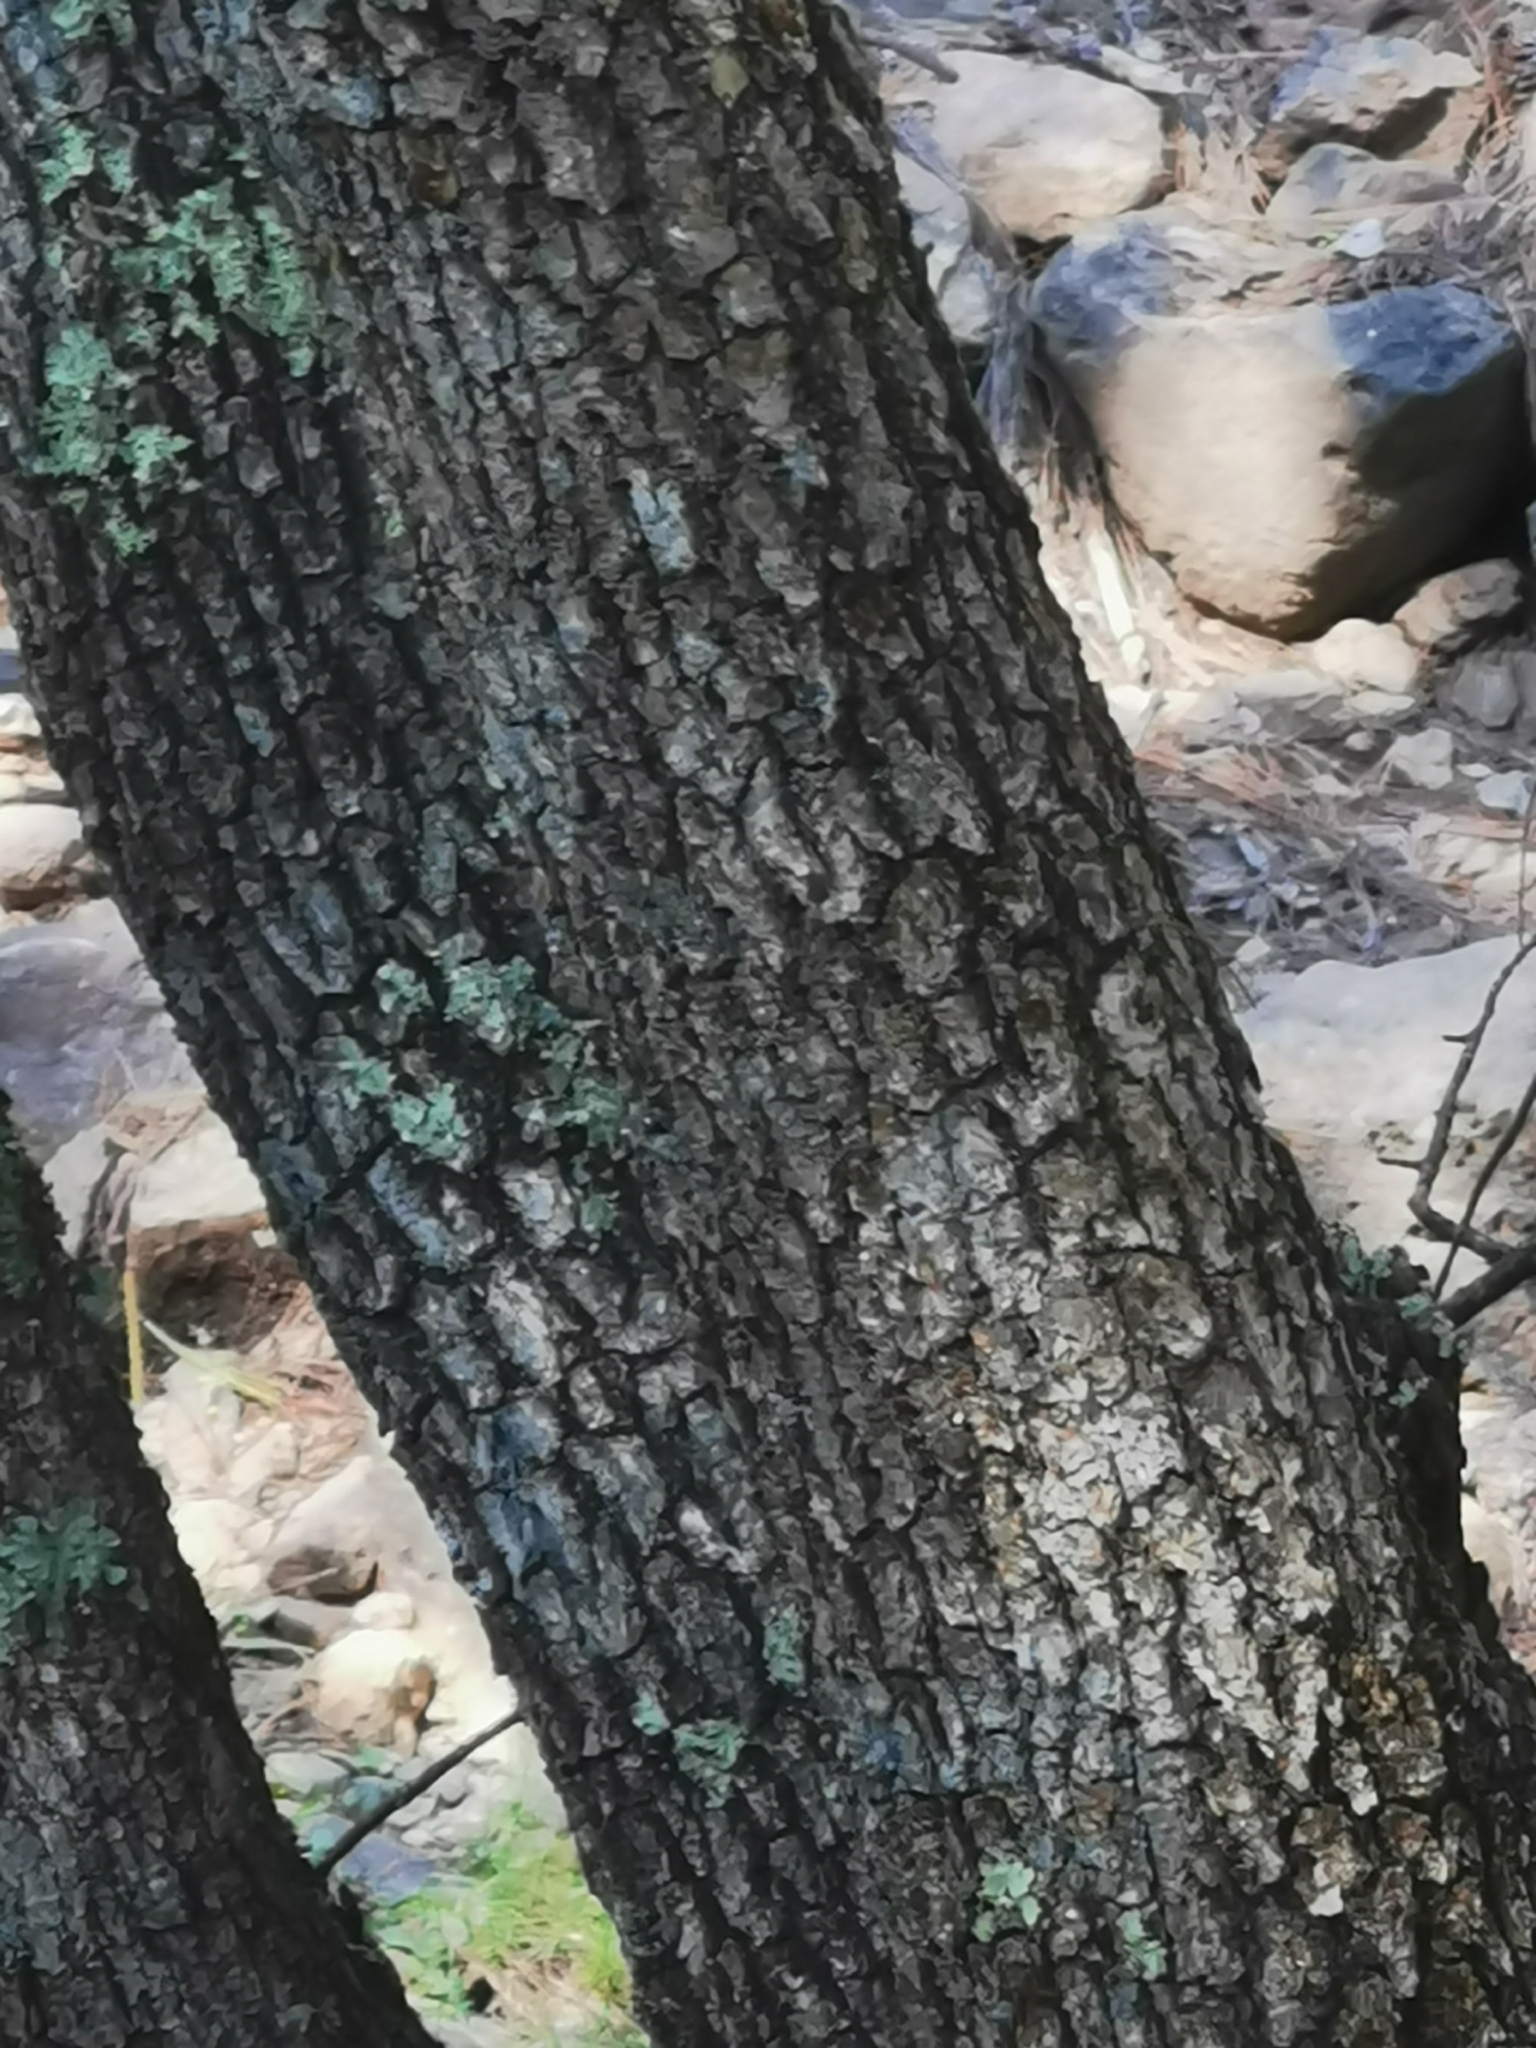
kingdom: Plantae
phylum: Tracheophyta
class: Magnoliopsida
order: Fagales
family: Fagaceae
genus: Quercus
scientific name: Quercus gambelii
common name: Gambel oak
